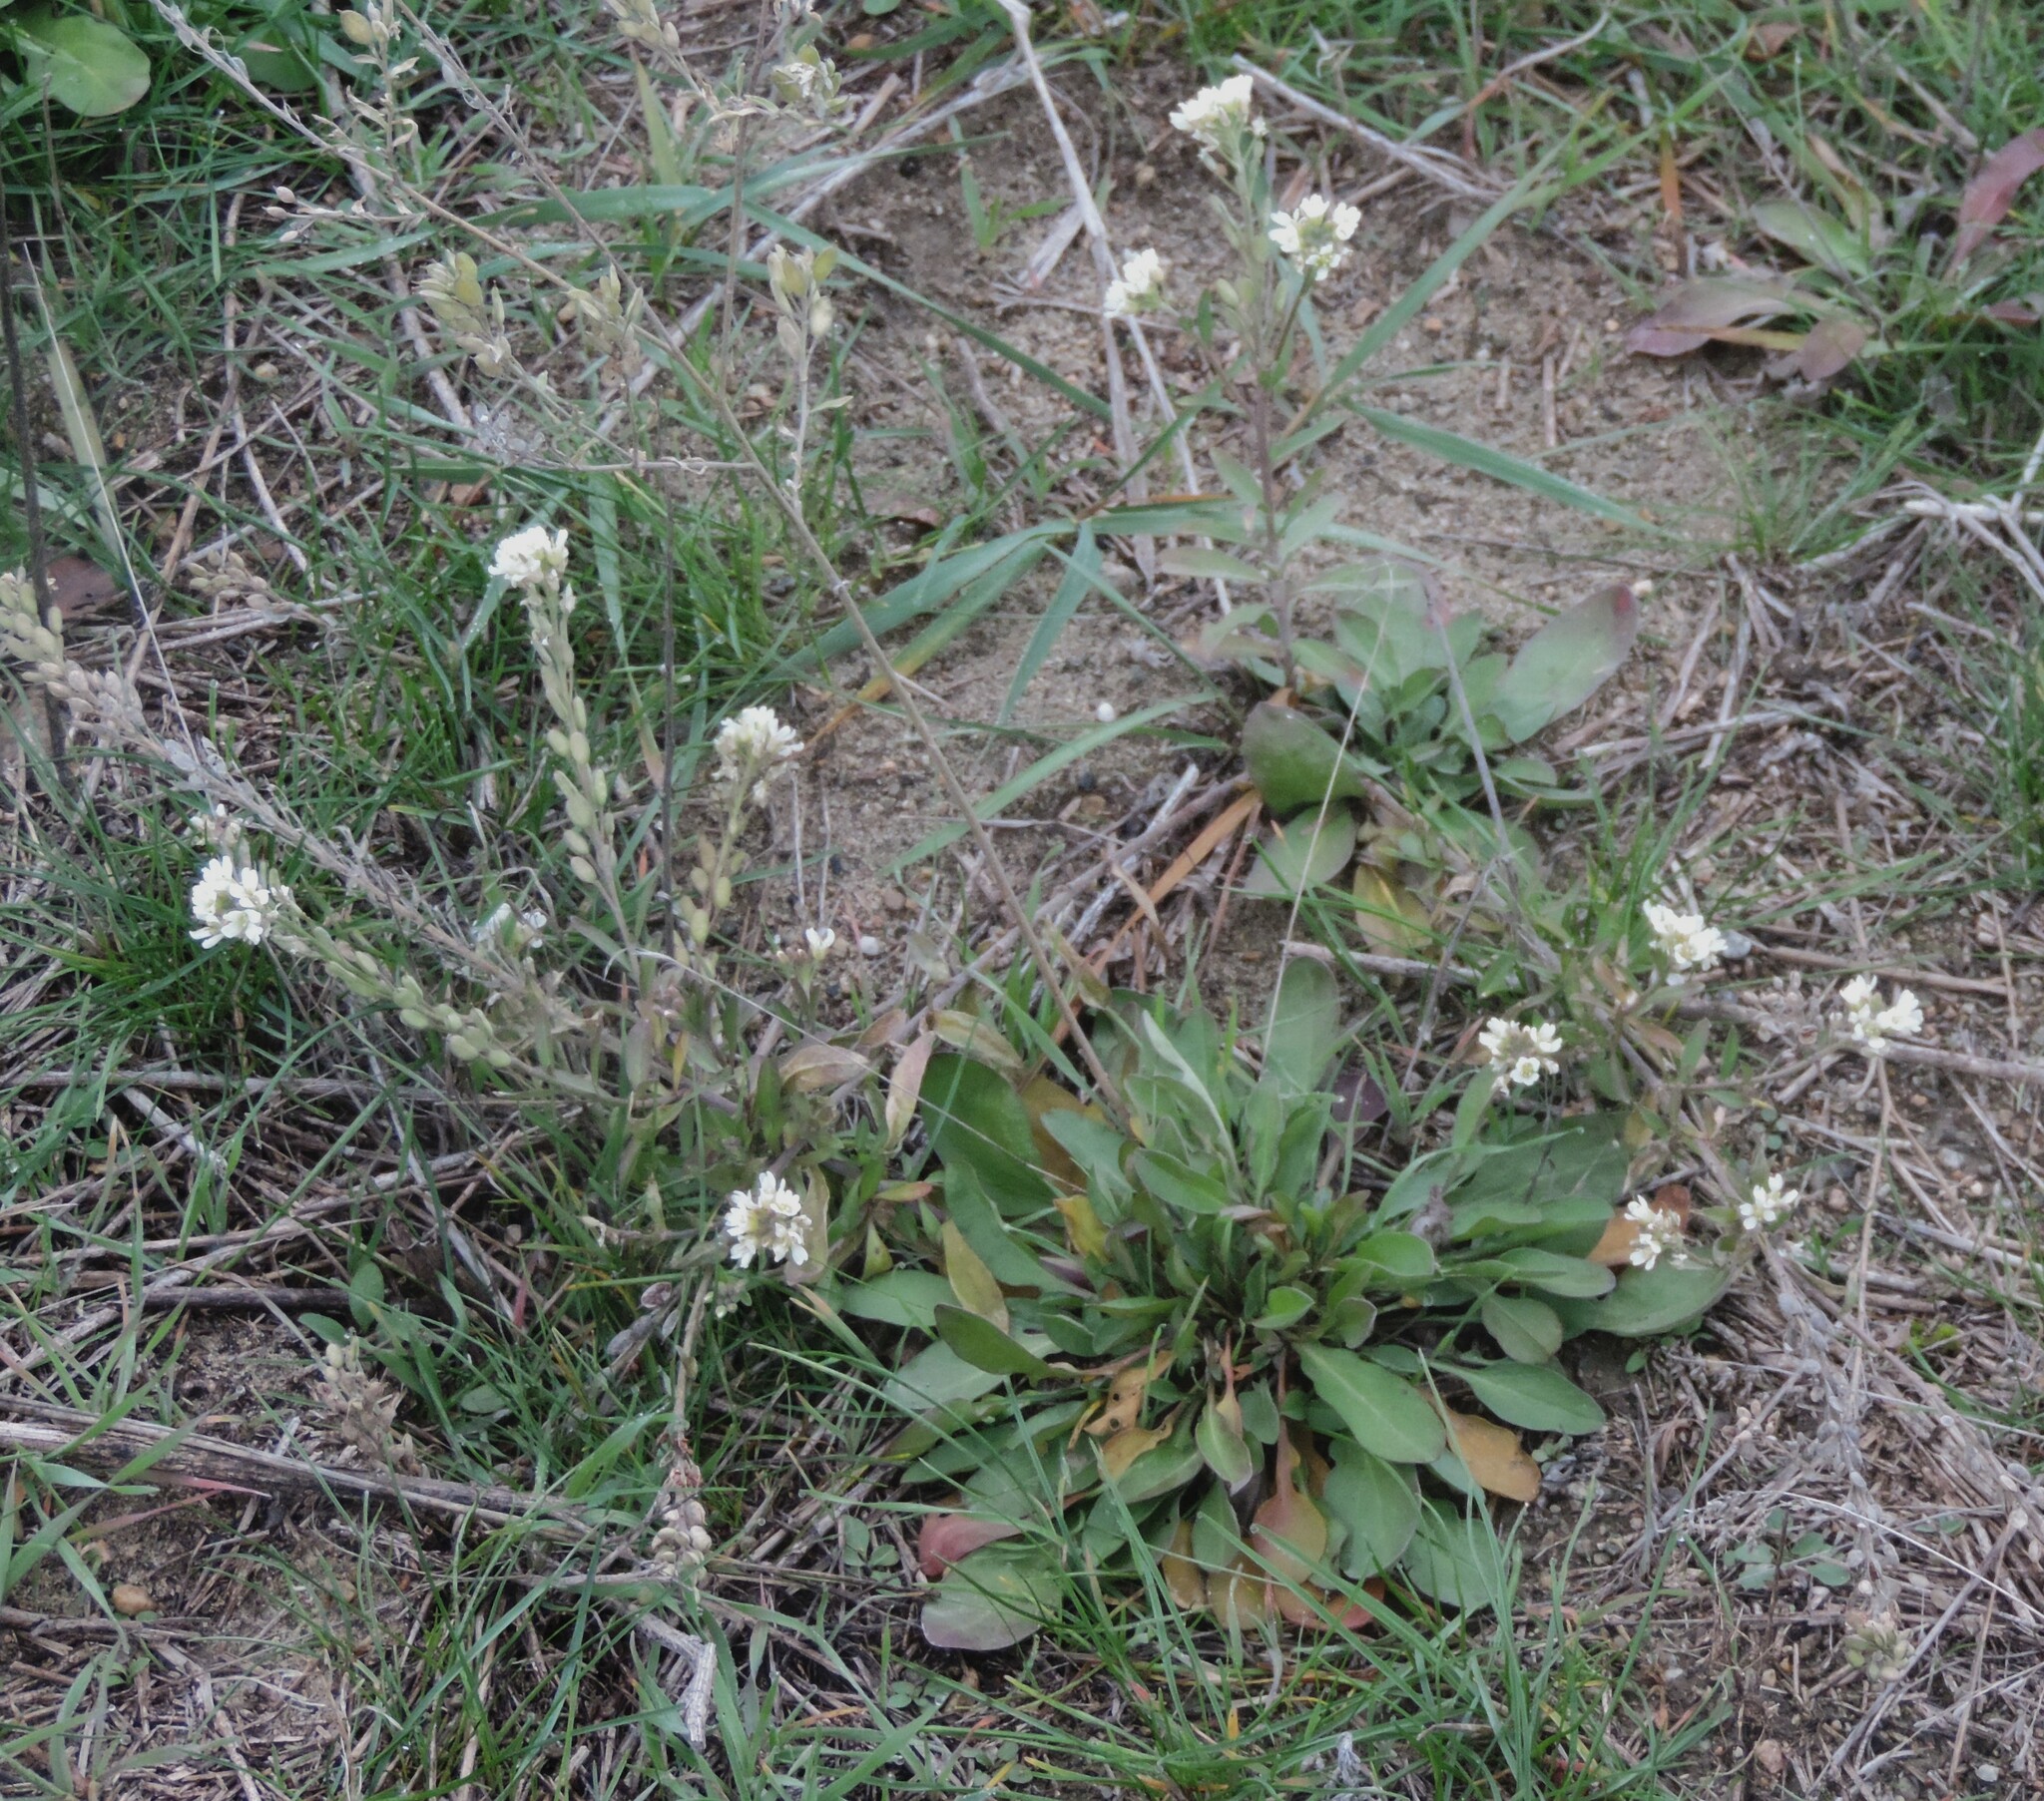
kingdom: Plantae
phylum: Tracheophyta
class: Magnoliopsida
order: Brassicales
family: Brassicaceae
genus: Berteroa
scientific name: Berteroa incana
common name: Hoary alison
